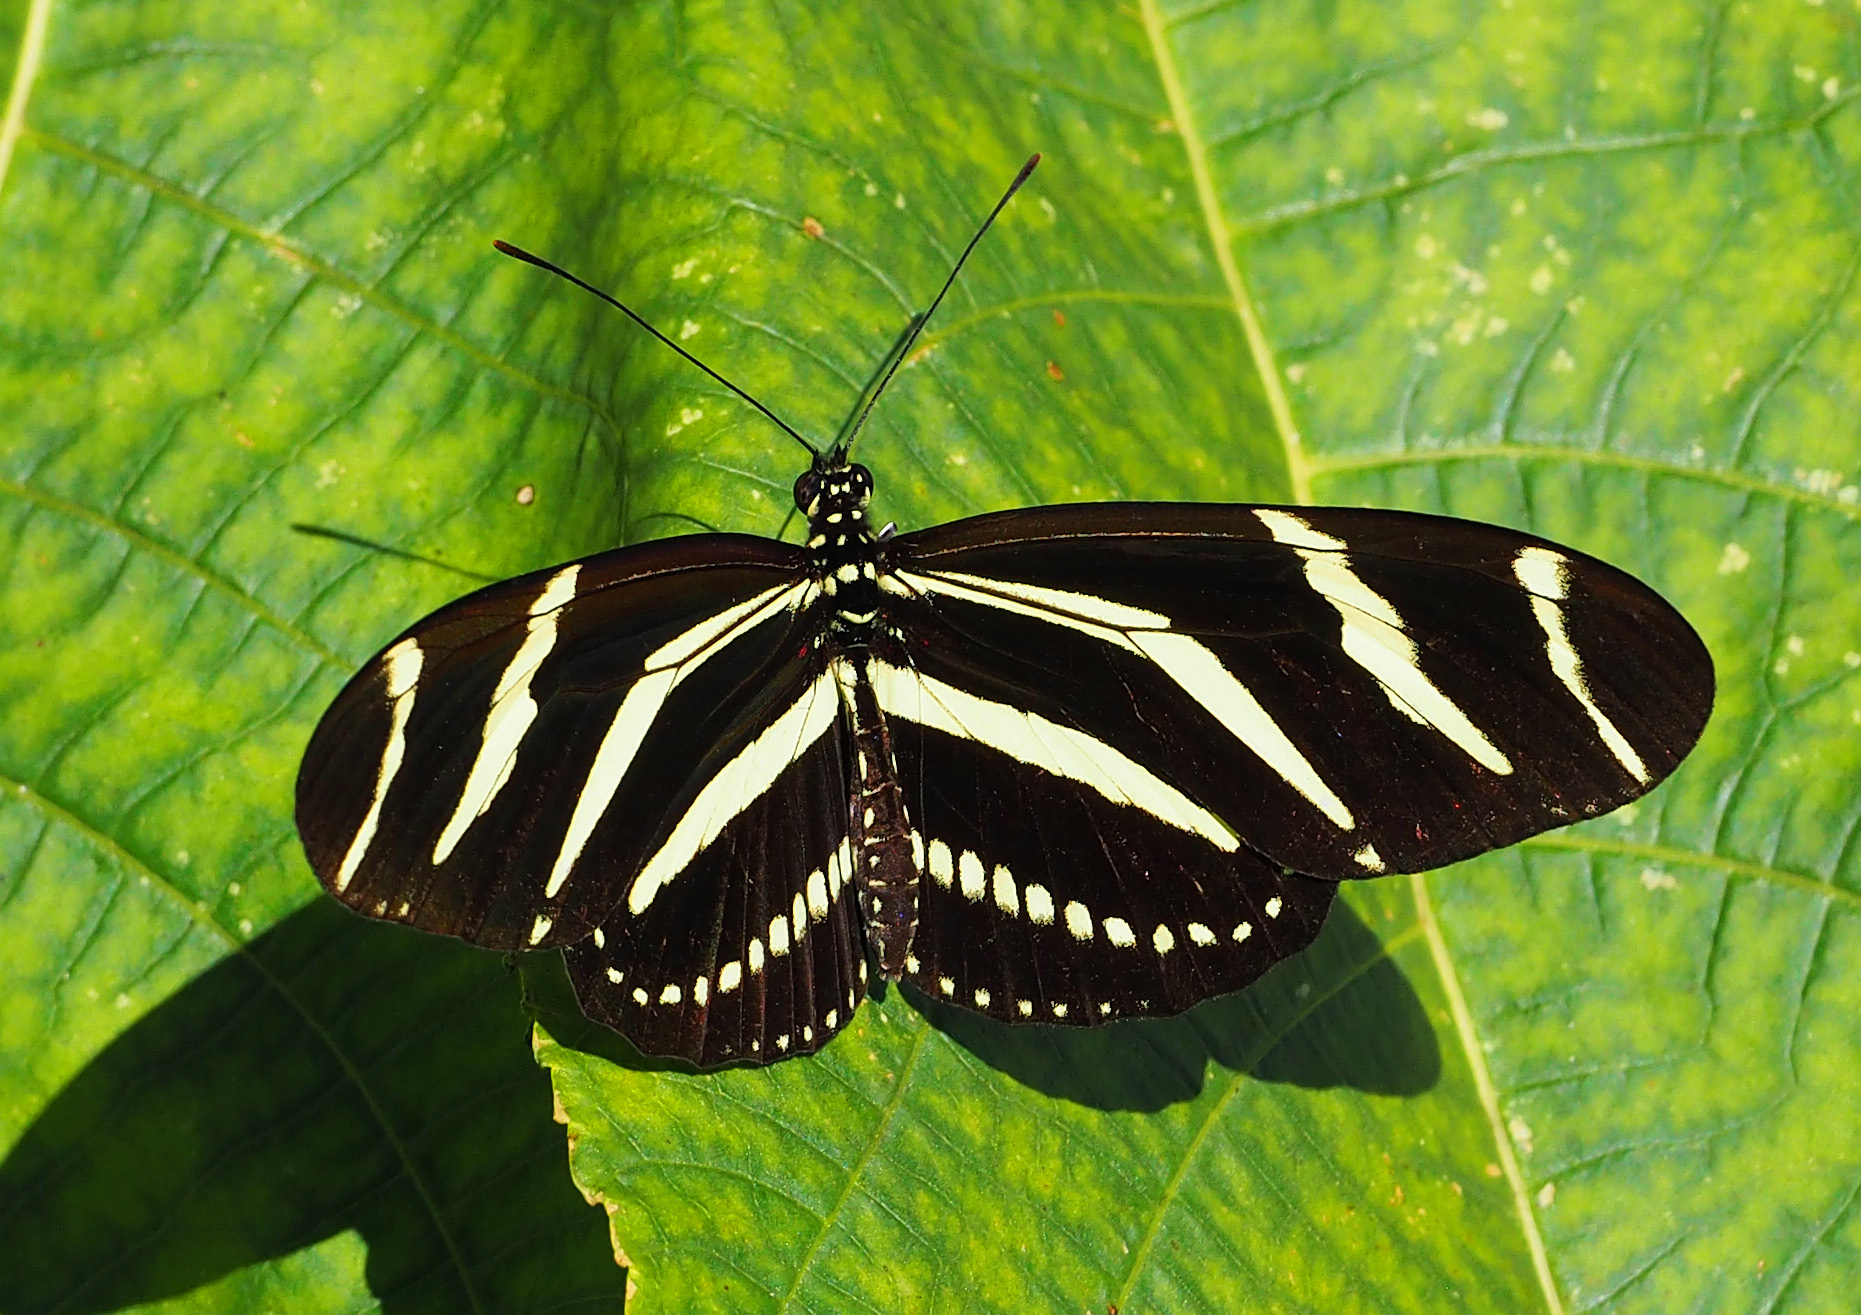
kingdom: Animalia
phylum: Arthropoda
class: Insecta
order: Lepidoptera
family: Nymphalidae
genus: Heliconius
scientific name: Heliconius charithonia
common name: Zebra long wing
